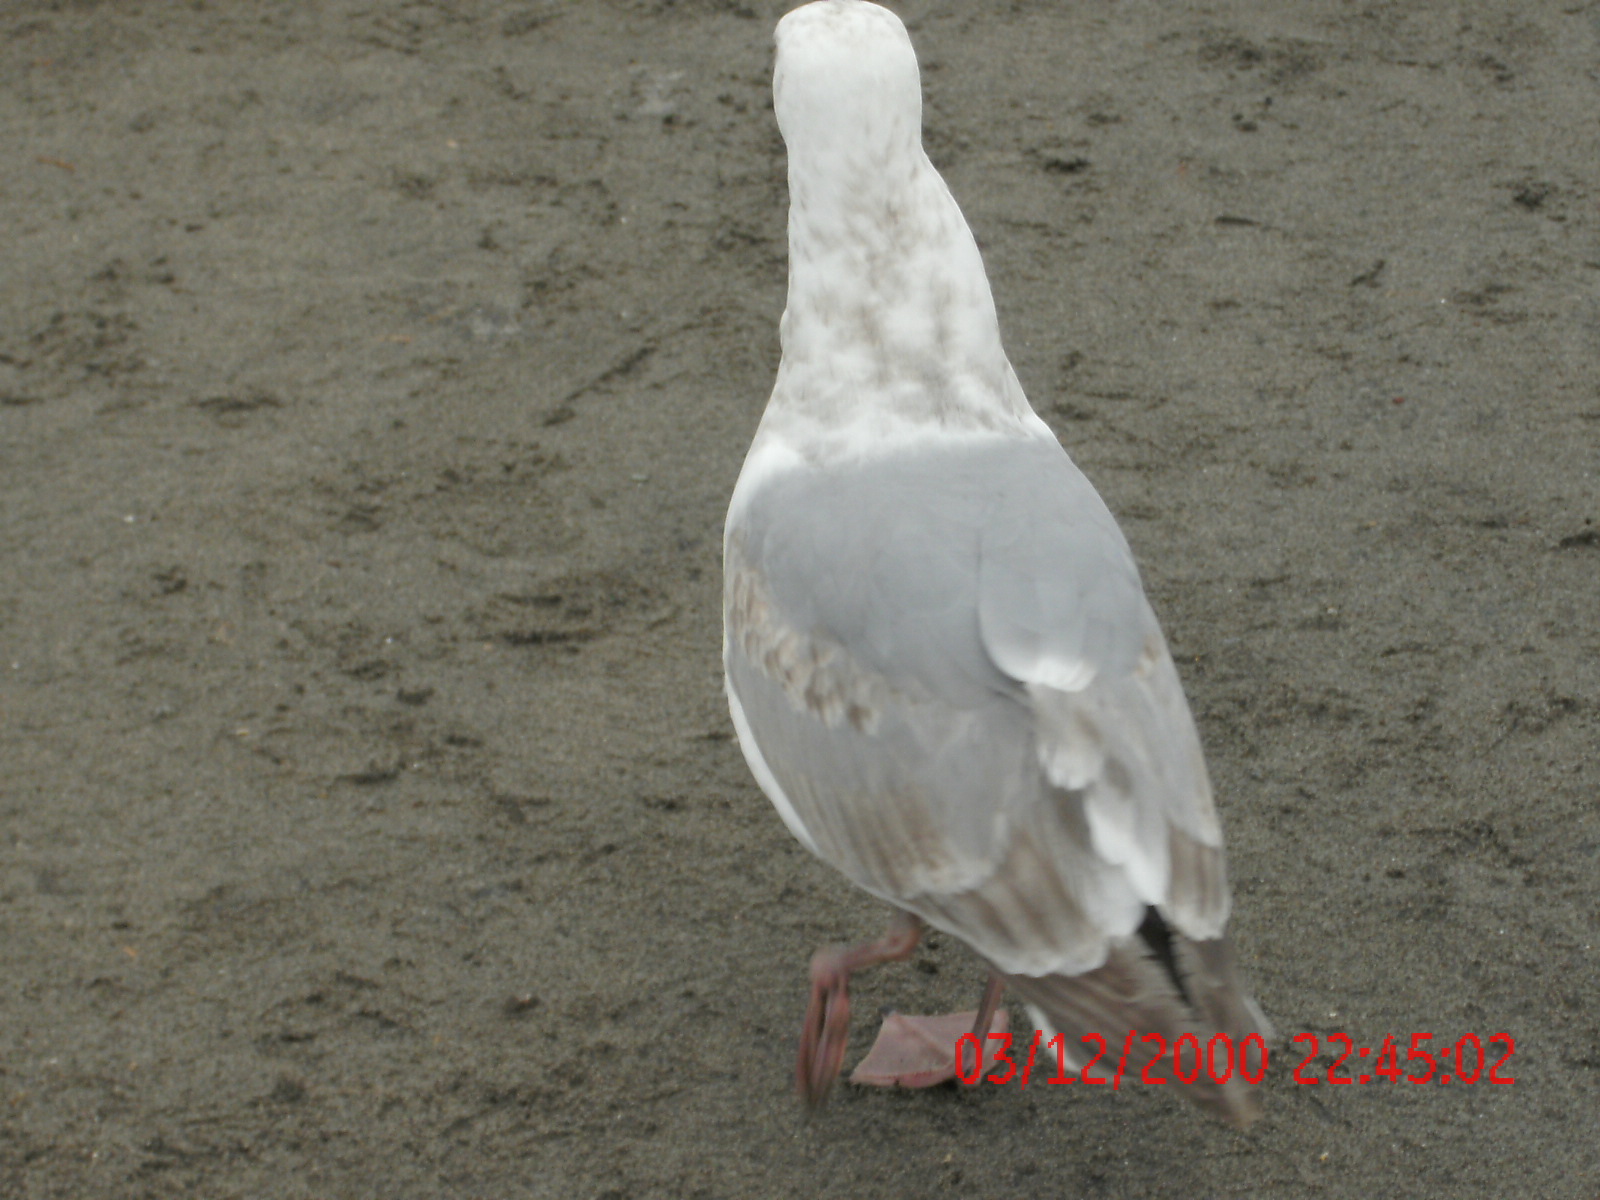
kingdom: Animalia
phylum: Chordata
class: Aves
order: Charadriiformes
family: Laridae
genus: Larus
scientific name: Larus
